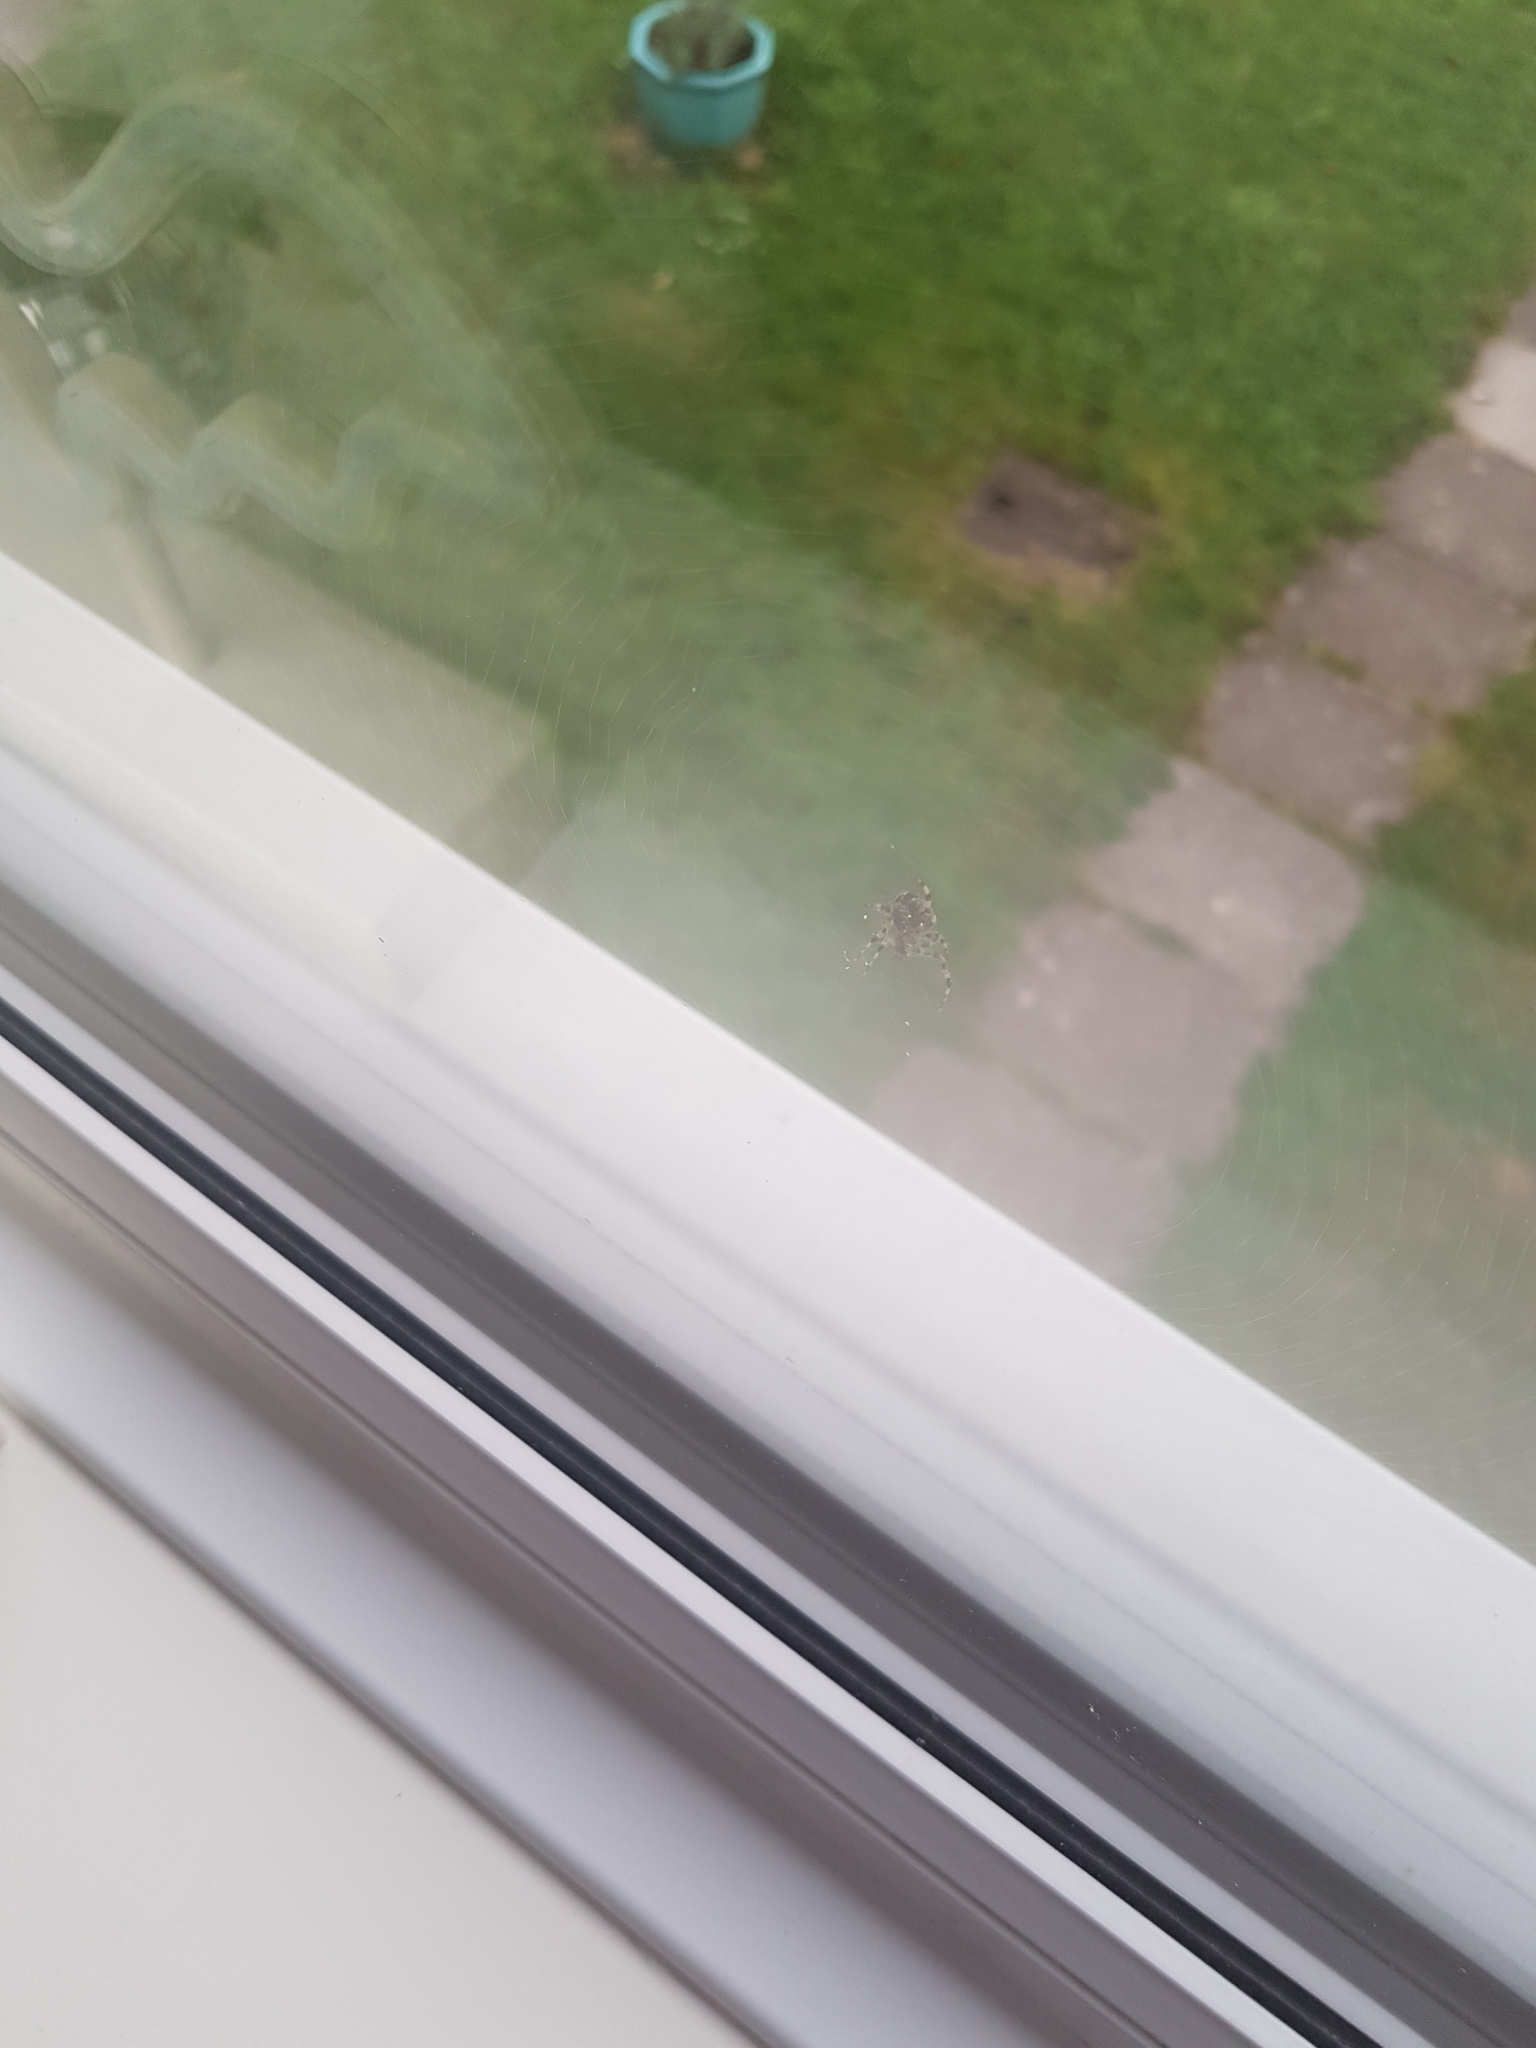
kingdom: Animalia
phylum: Arthropoda
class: Arachnida
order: Araneae
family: Araneidae
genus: Araneus
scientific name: Araneus diadematus
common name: Cross orbweaver
